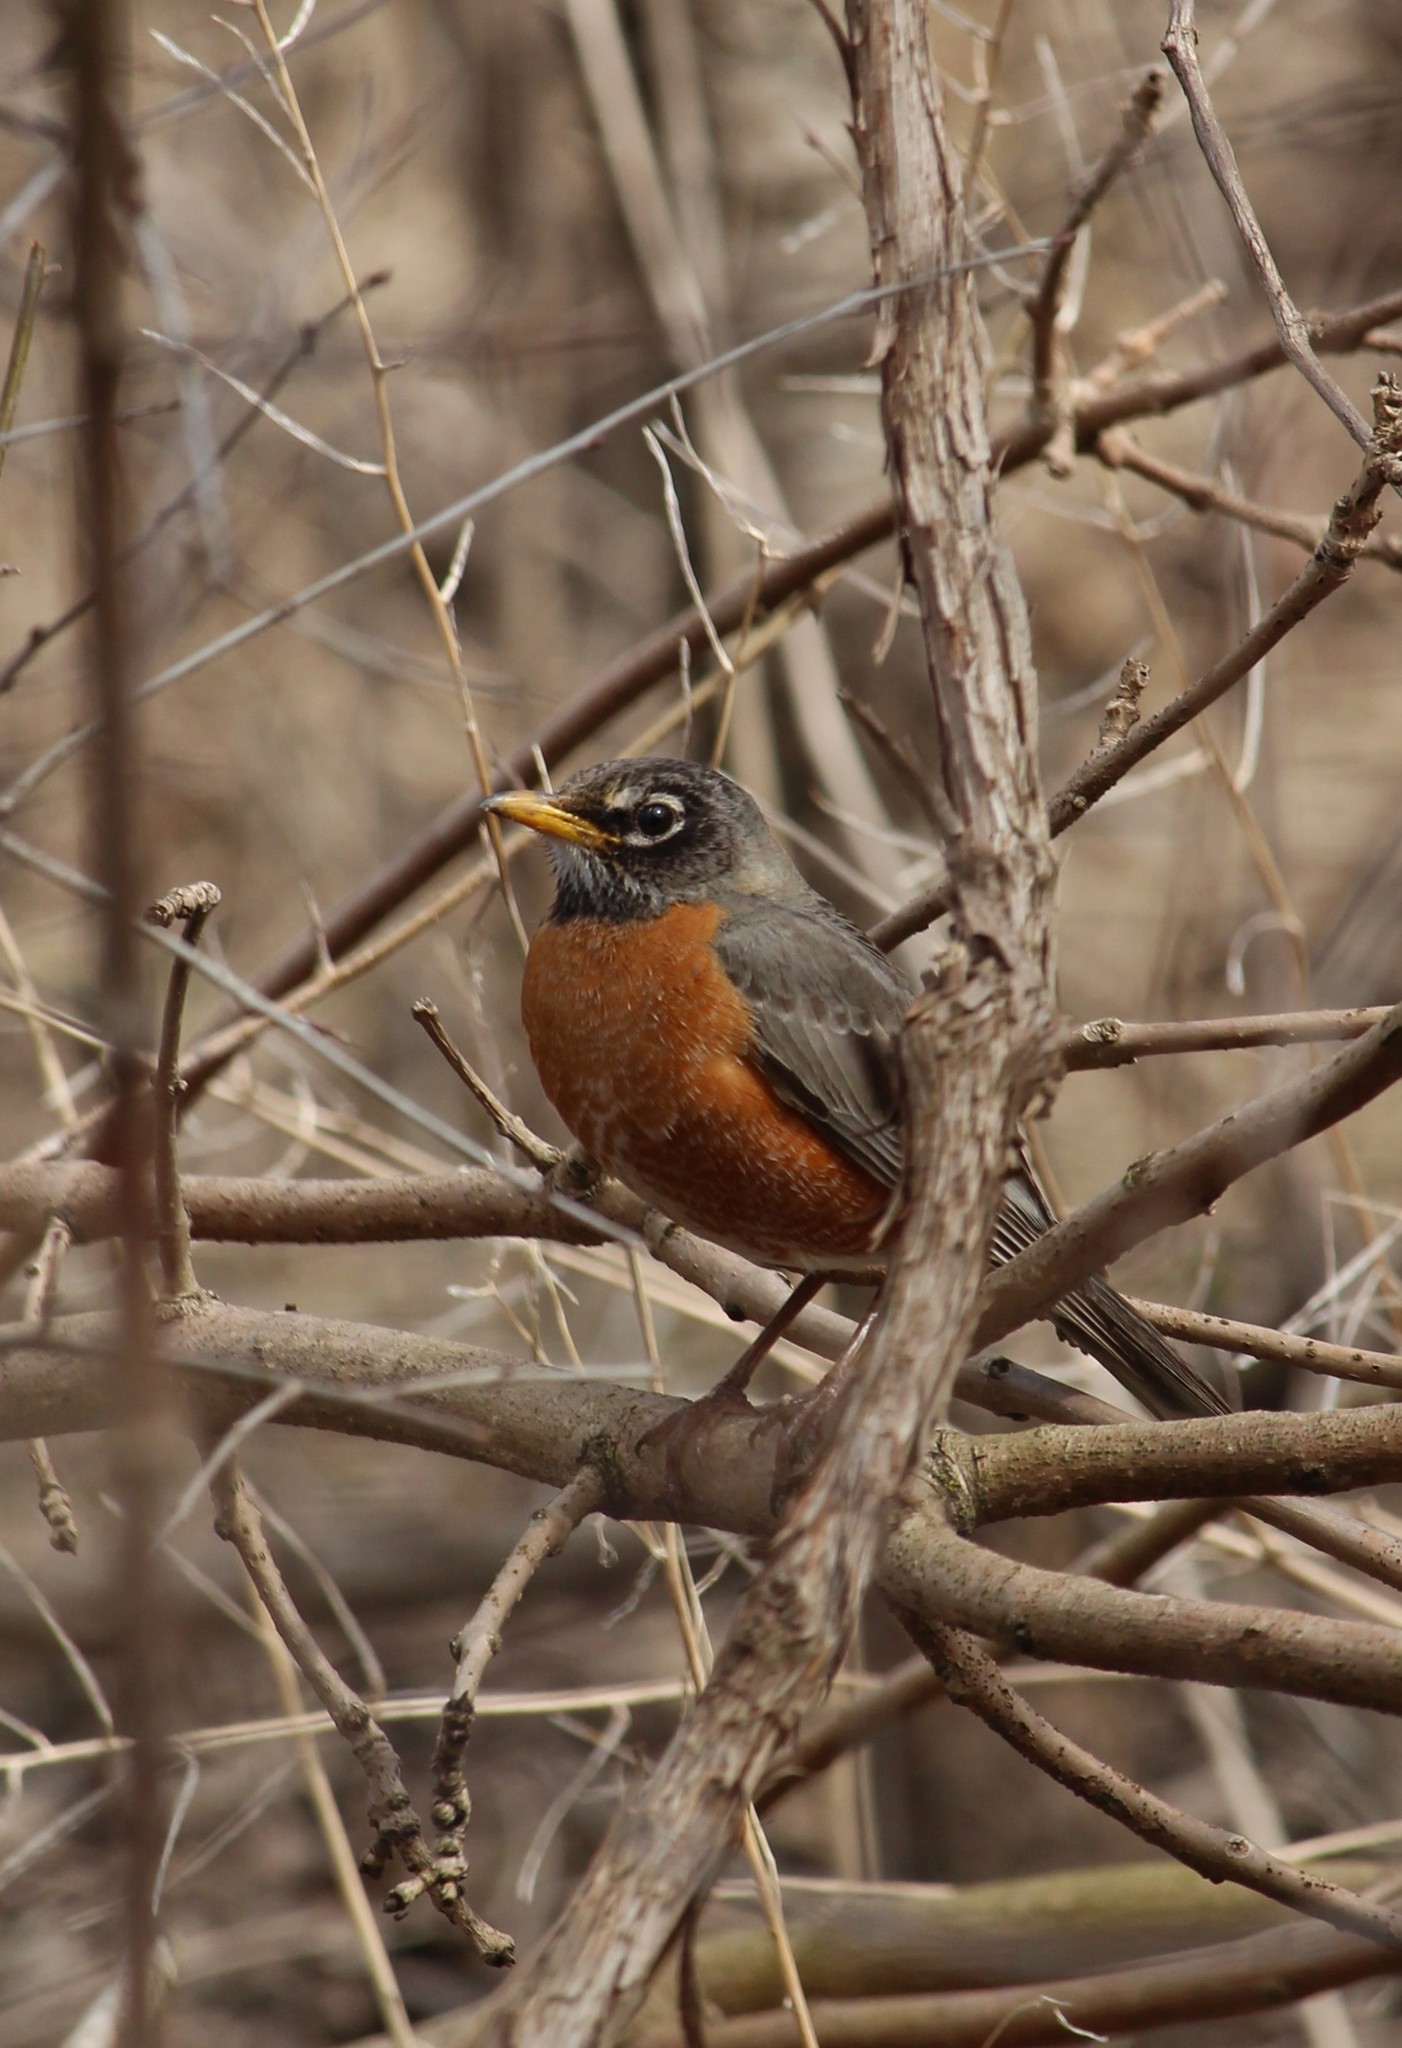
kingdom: Animalia
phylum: Chordata
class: Aves
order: Passeriformes
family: Turdidae
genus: Turdus
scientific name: Turdus migratorius
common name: American robin
